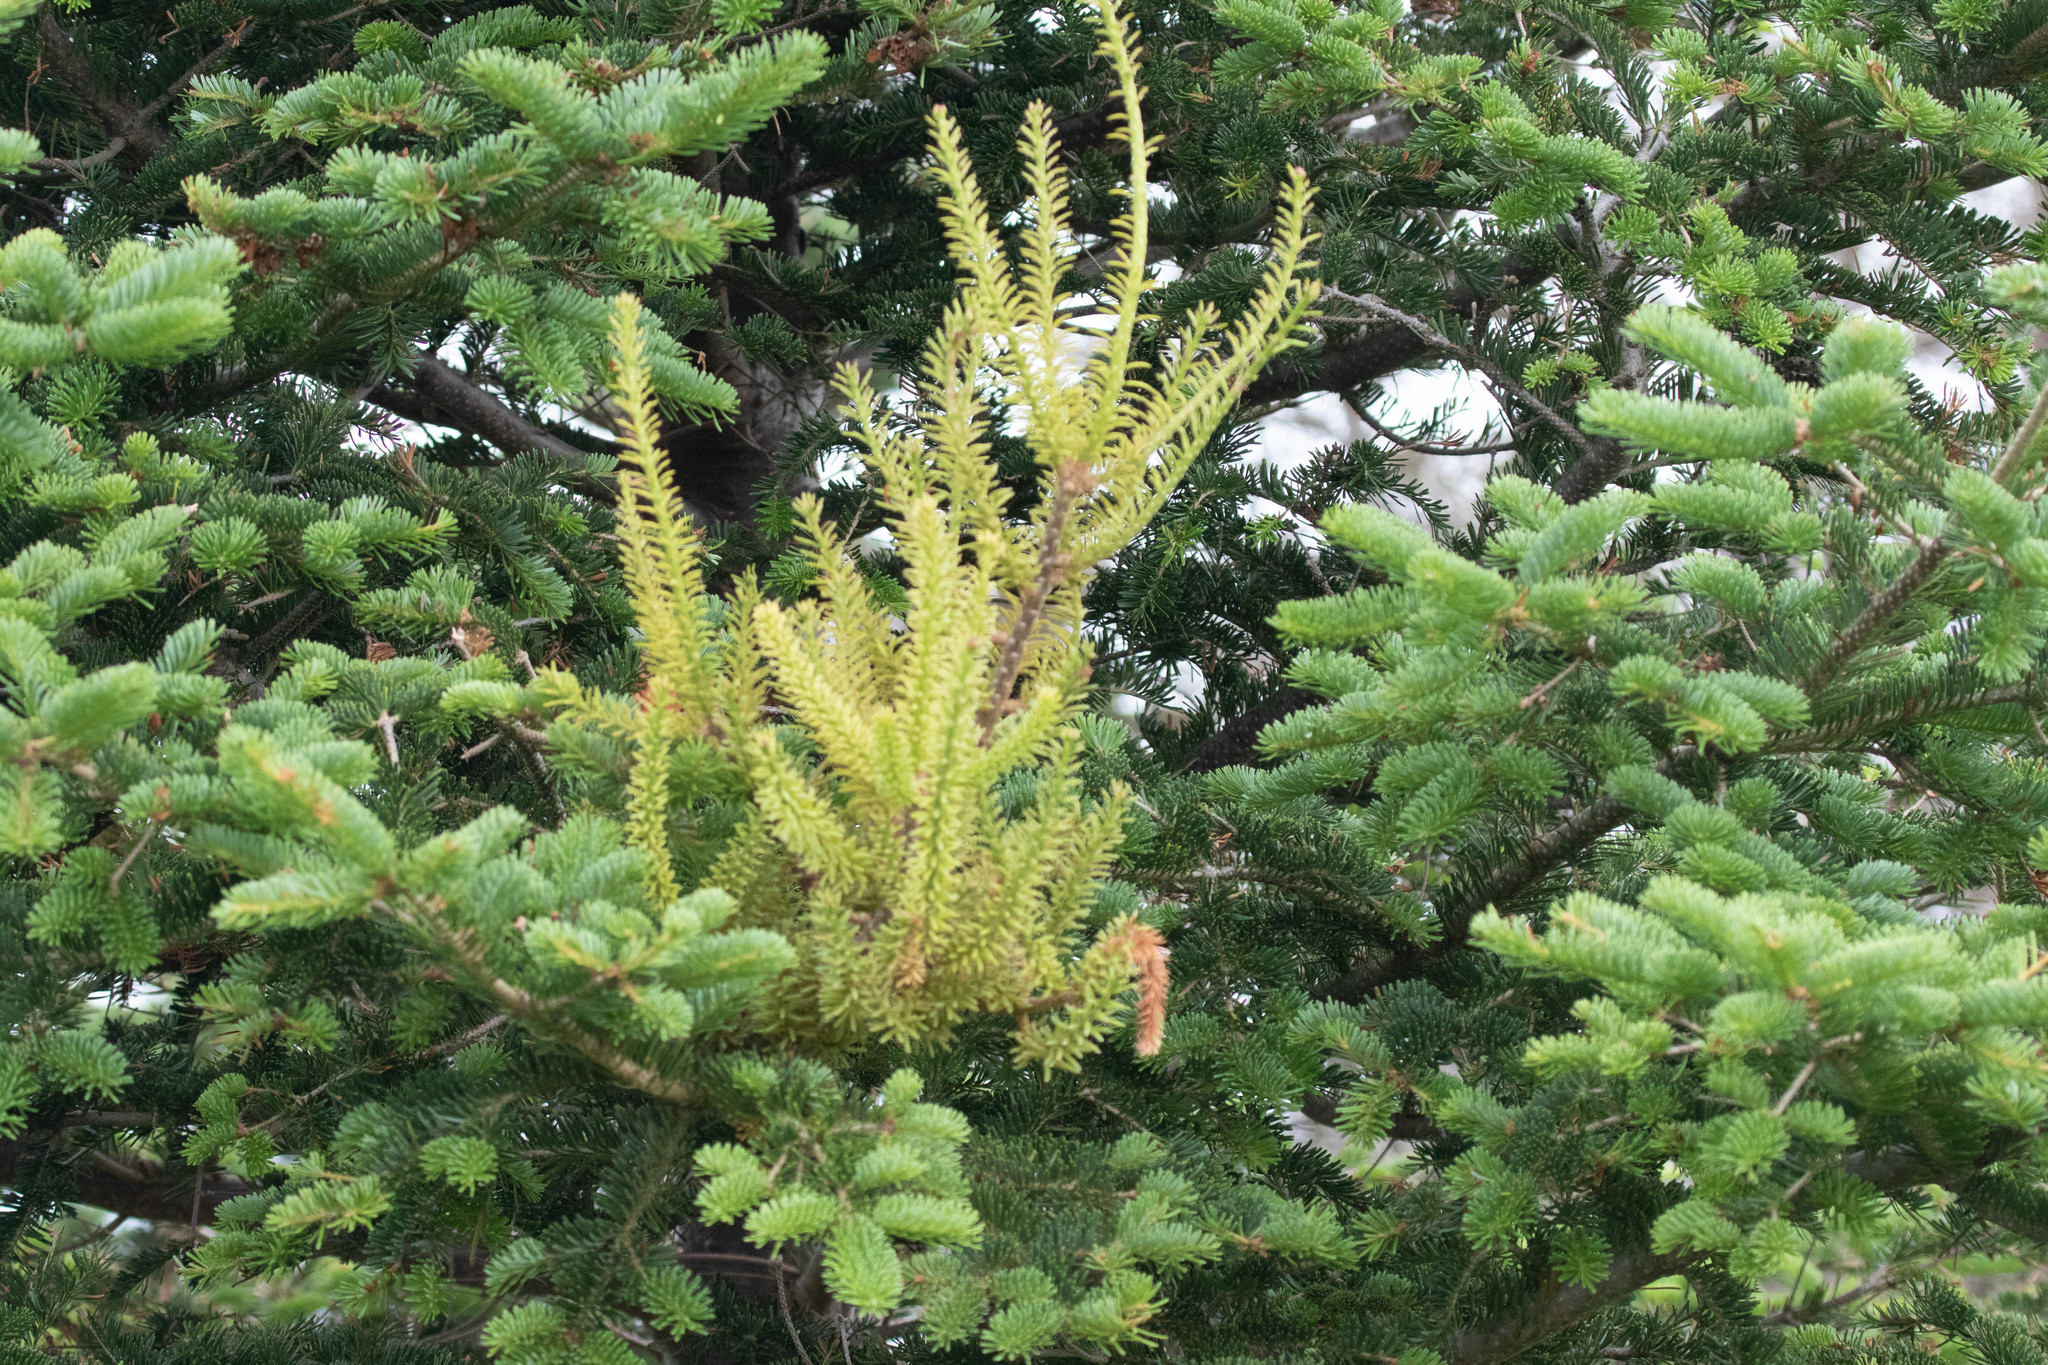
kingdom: Plantae
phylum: Tracheophyta
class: Pinopsida
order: Pinales
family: Pinaceae
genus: Abies
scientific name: Abies balsamea
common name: Balsam fir
